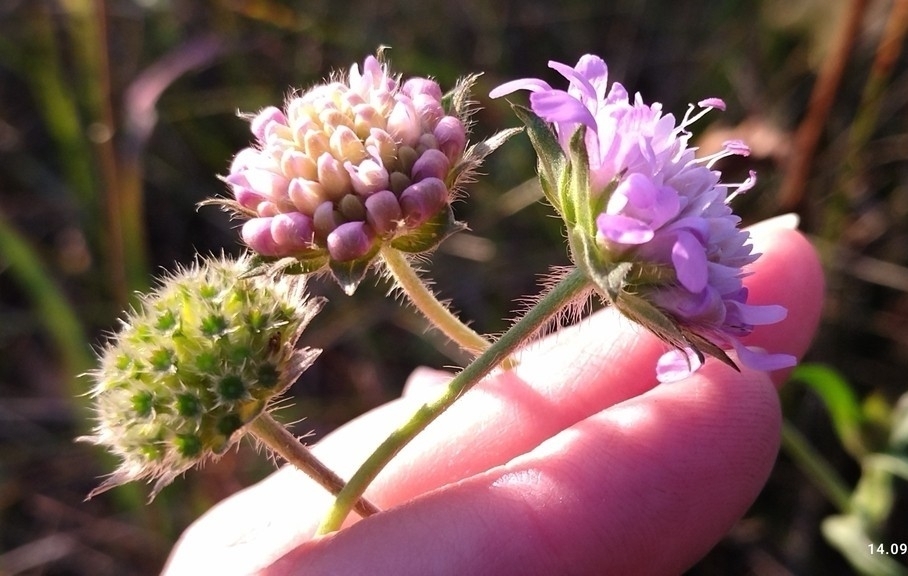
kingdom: Plantae
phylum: Tracheophyta
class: Magnoliopsida
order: Dipsacales
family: Caprifoliaceae
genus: Knautia
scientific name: Knautia arvensis
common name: Field scabiosa
